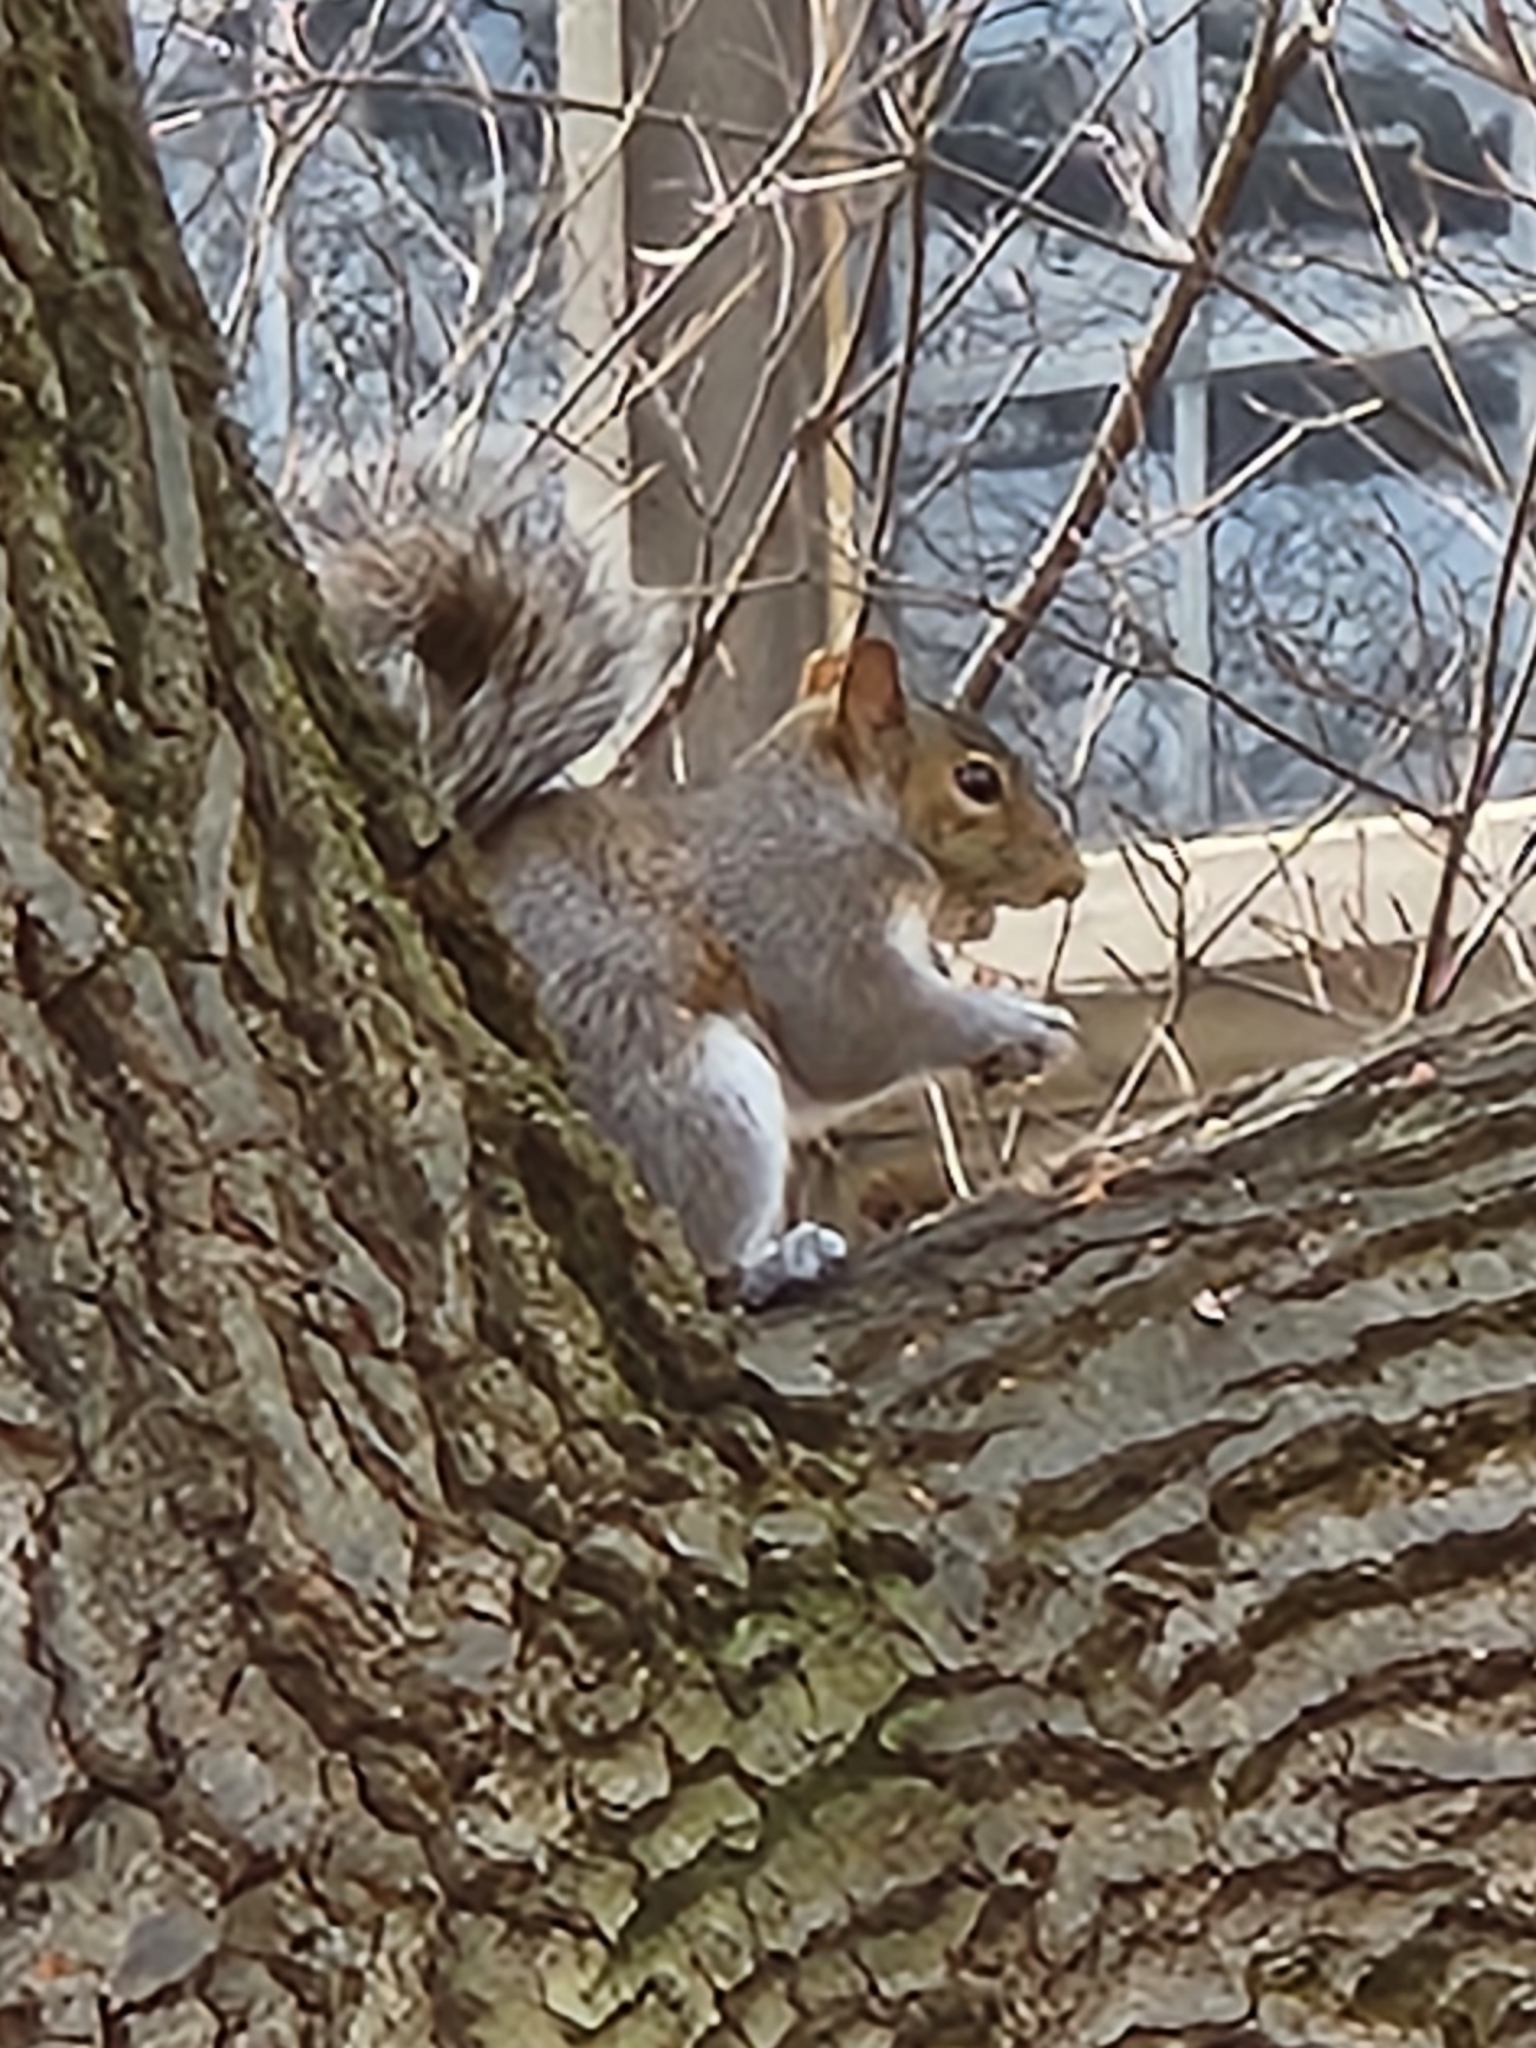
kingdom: Animalia
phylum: Chordata
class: Mammalia
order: Rodentia
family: Sciuridae
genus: Sciurus
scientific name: Sciurus carolinensis
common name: Eastern gray squirrel
